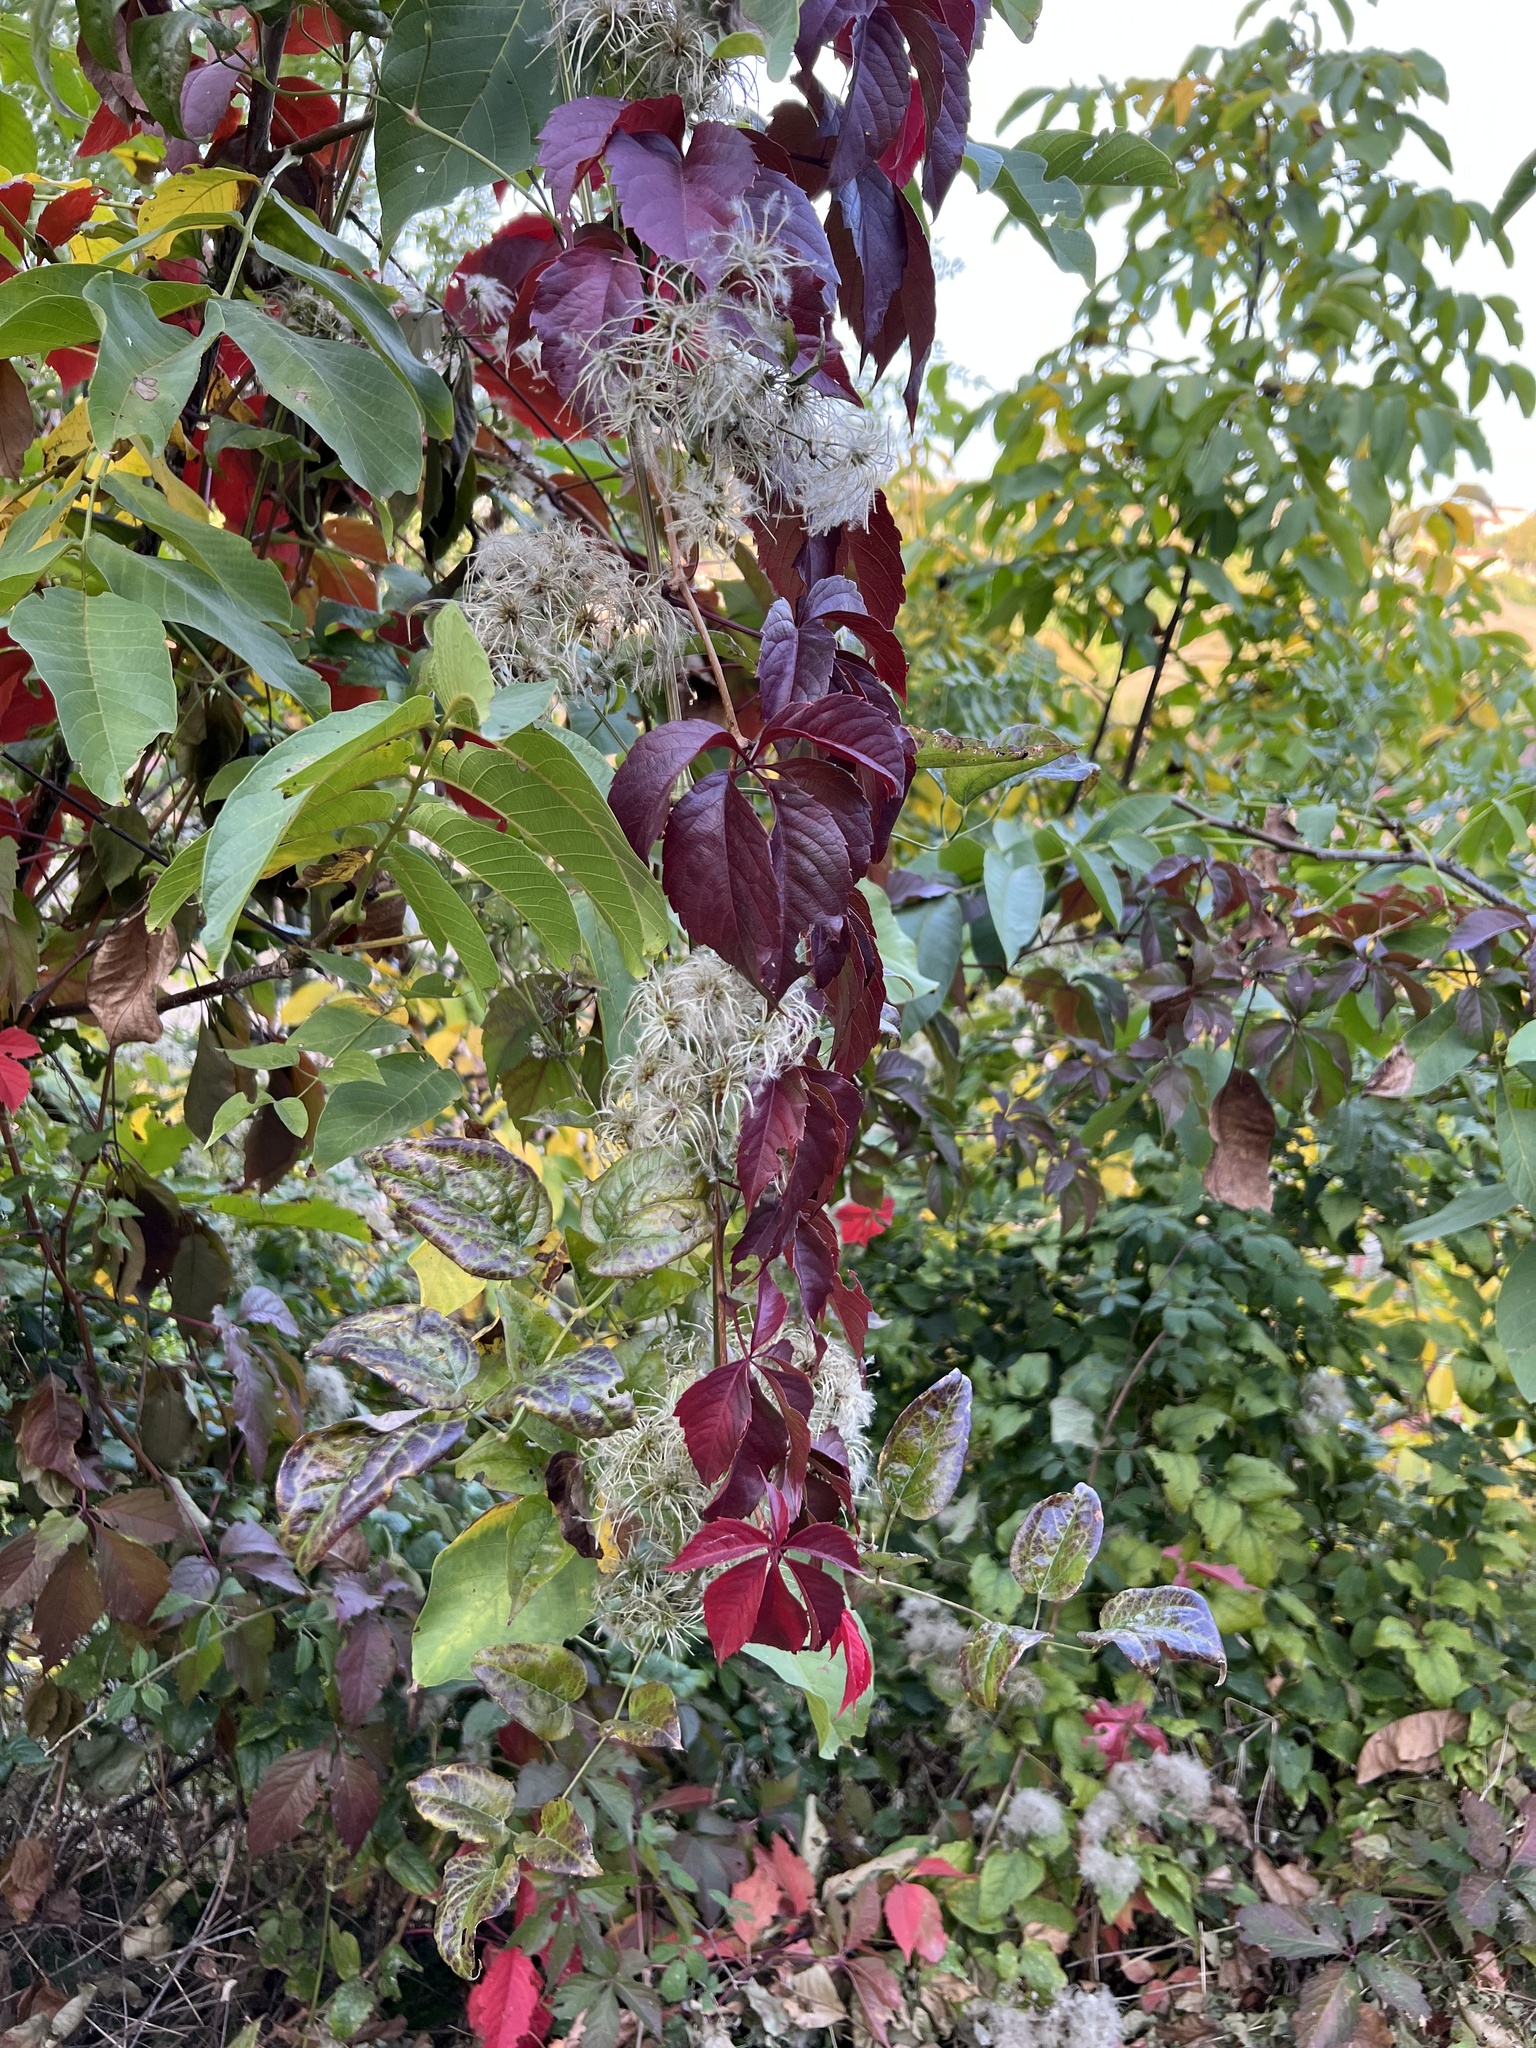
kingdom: Plantae
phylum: Tracheophyta
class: Magnoliopsida
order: Ranunculales
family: Ranunculaceae
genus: Clematis
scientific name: Clematis vitalba
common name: Evergreen clematis
